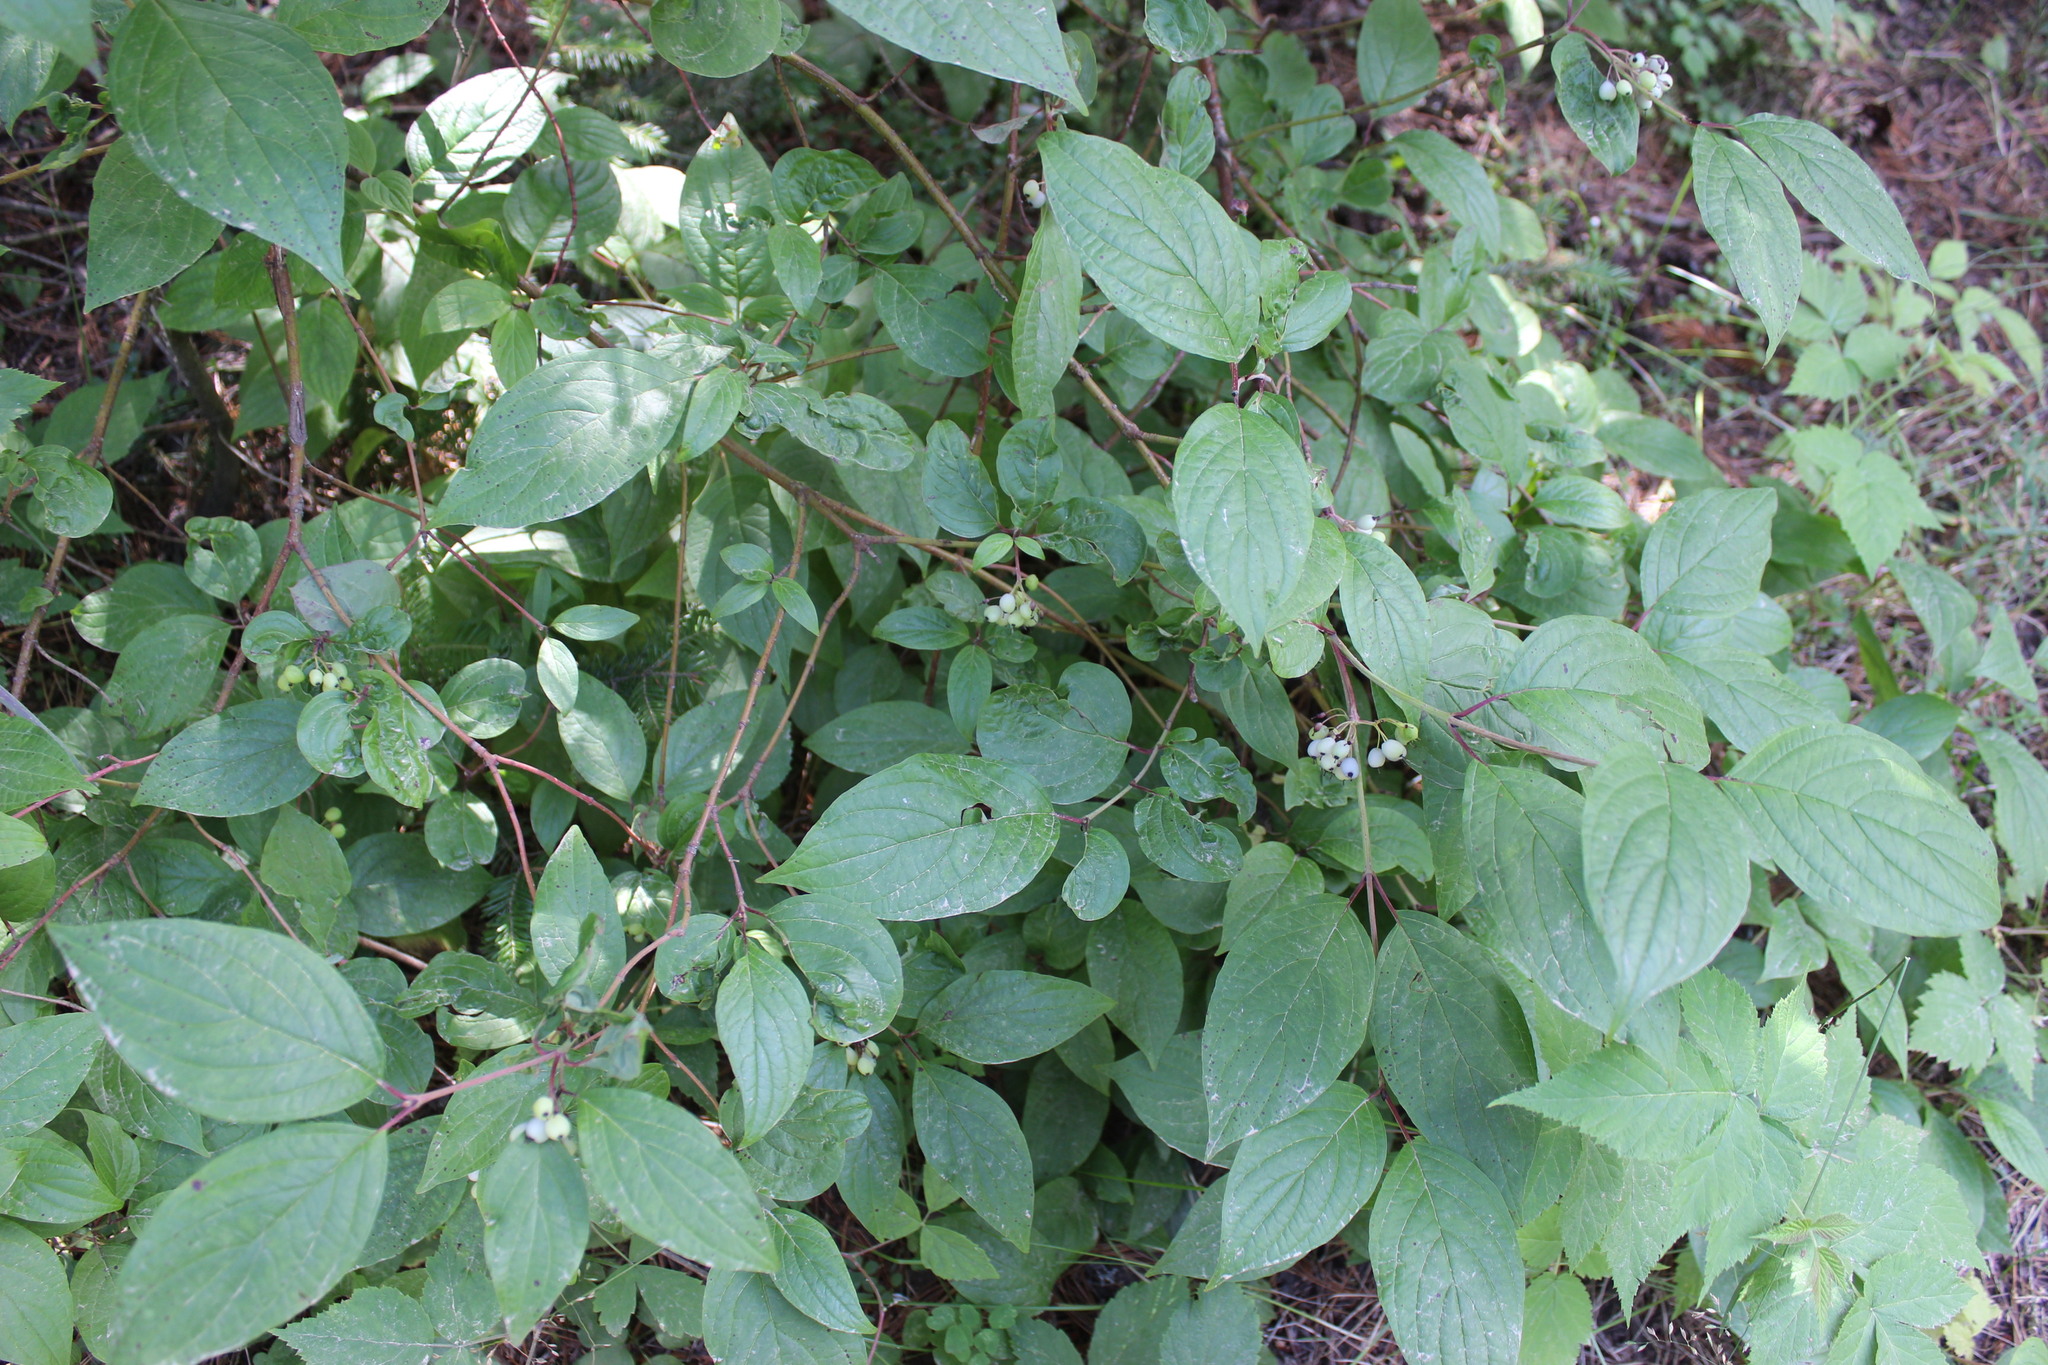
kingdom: Plantae
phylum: Tracheophyta
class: Magnoliopsida
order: Cornales
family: Cornaceae
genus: Cornus
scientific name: Cornus alba
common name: White dogwood
